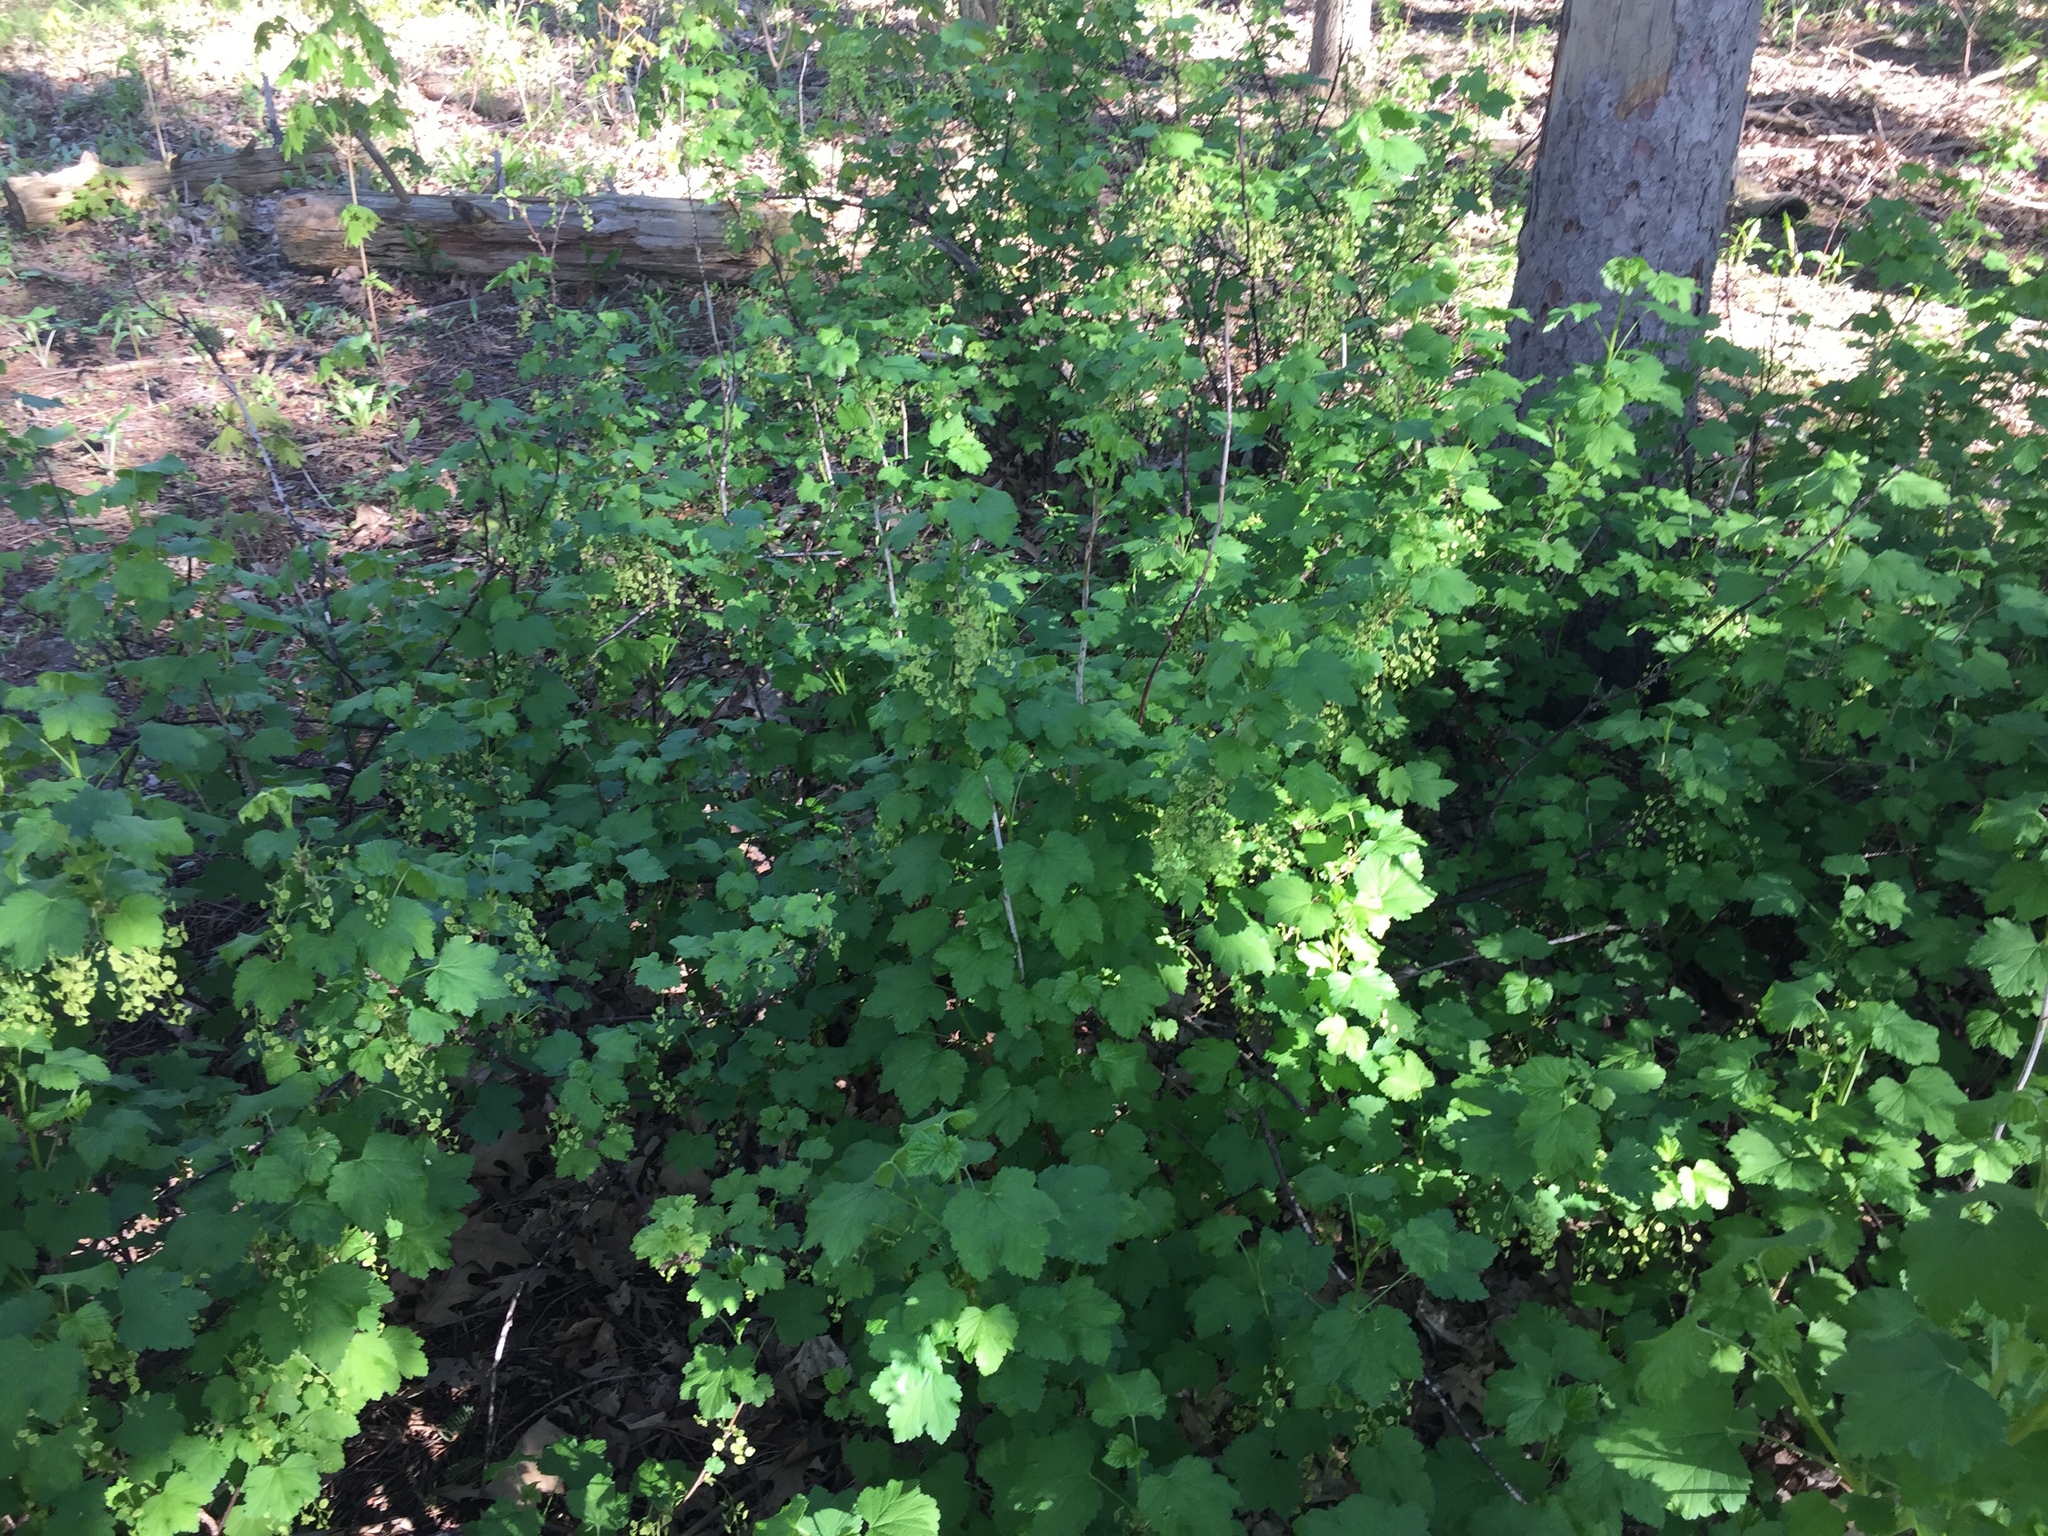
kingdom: Plantae
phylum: Tracheophyta
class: Magnoliopsida
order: Saxifragales
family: Grossulariaceae
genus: Ribes
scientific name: Ribes rubrum
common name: Red currant
